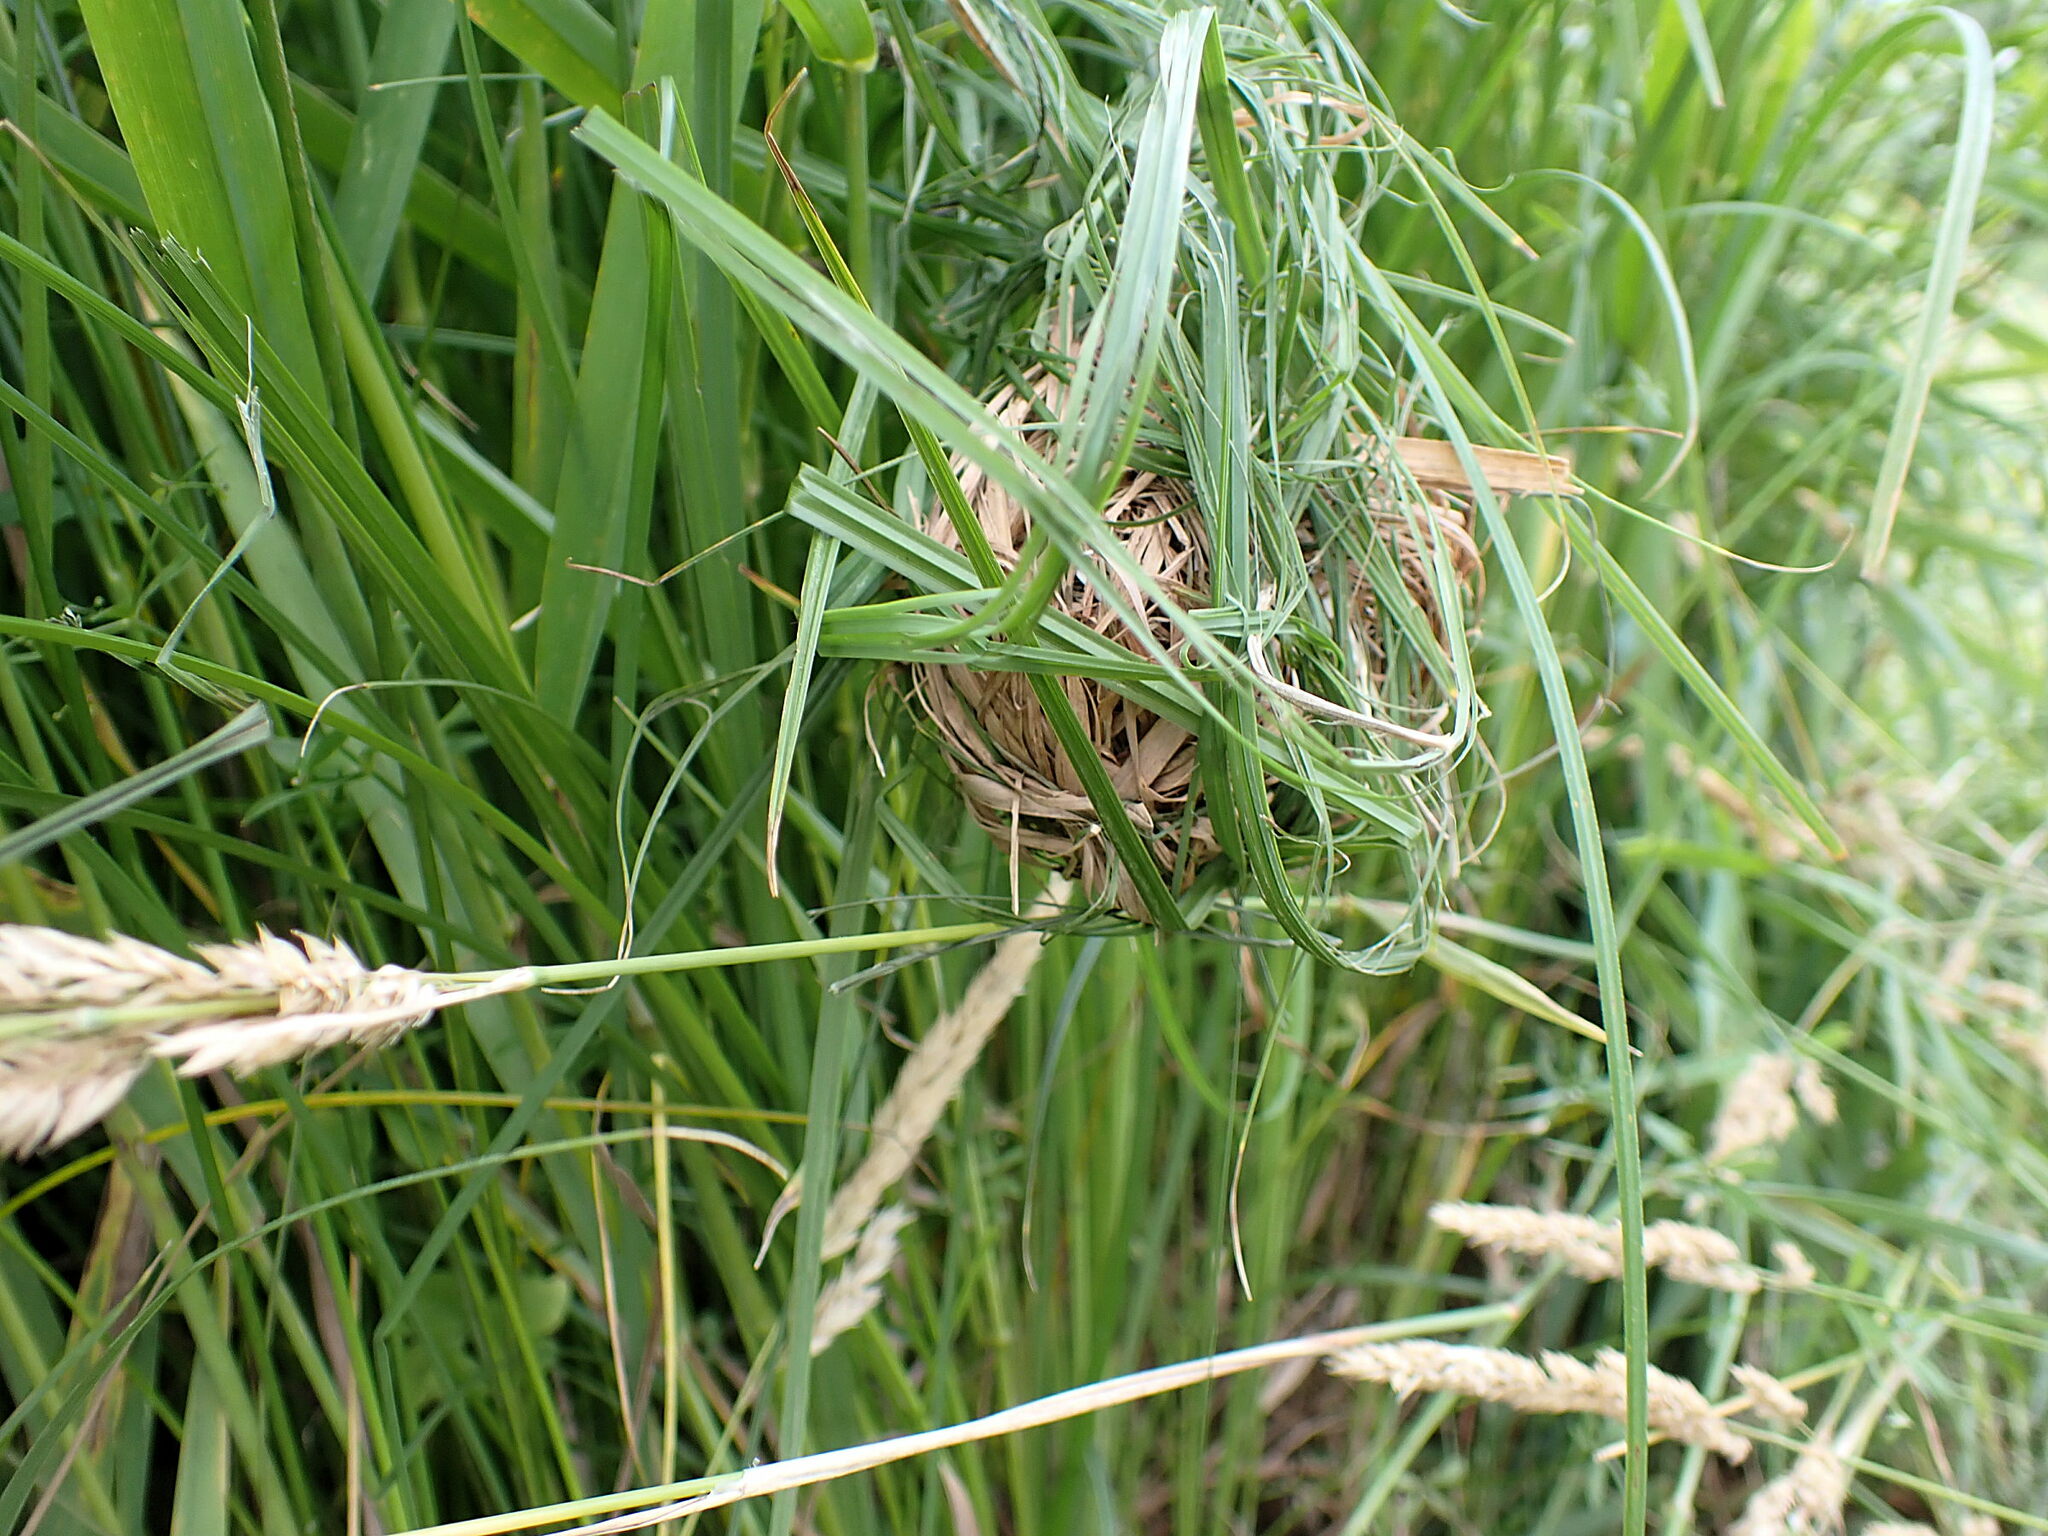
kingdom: Animalia
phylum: Chordata
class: Mammalia
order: Rodentia
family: Muridae
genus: Micromys
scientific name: Micromys minutus
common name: Harvest mouse
